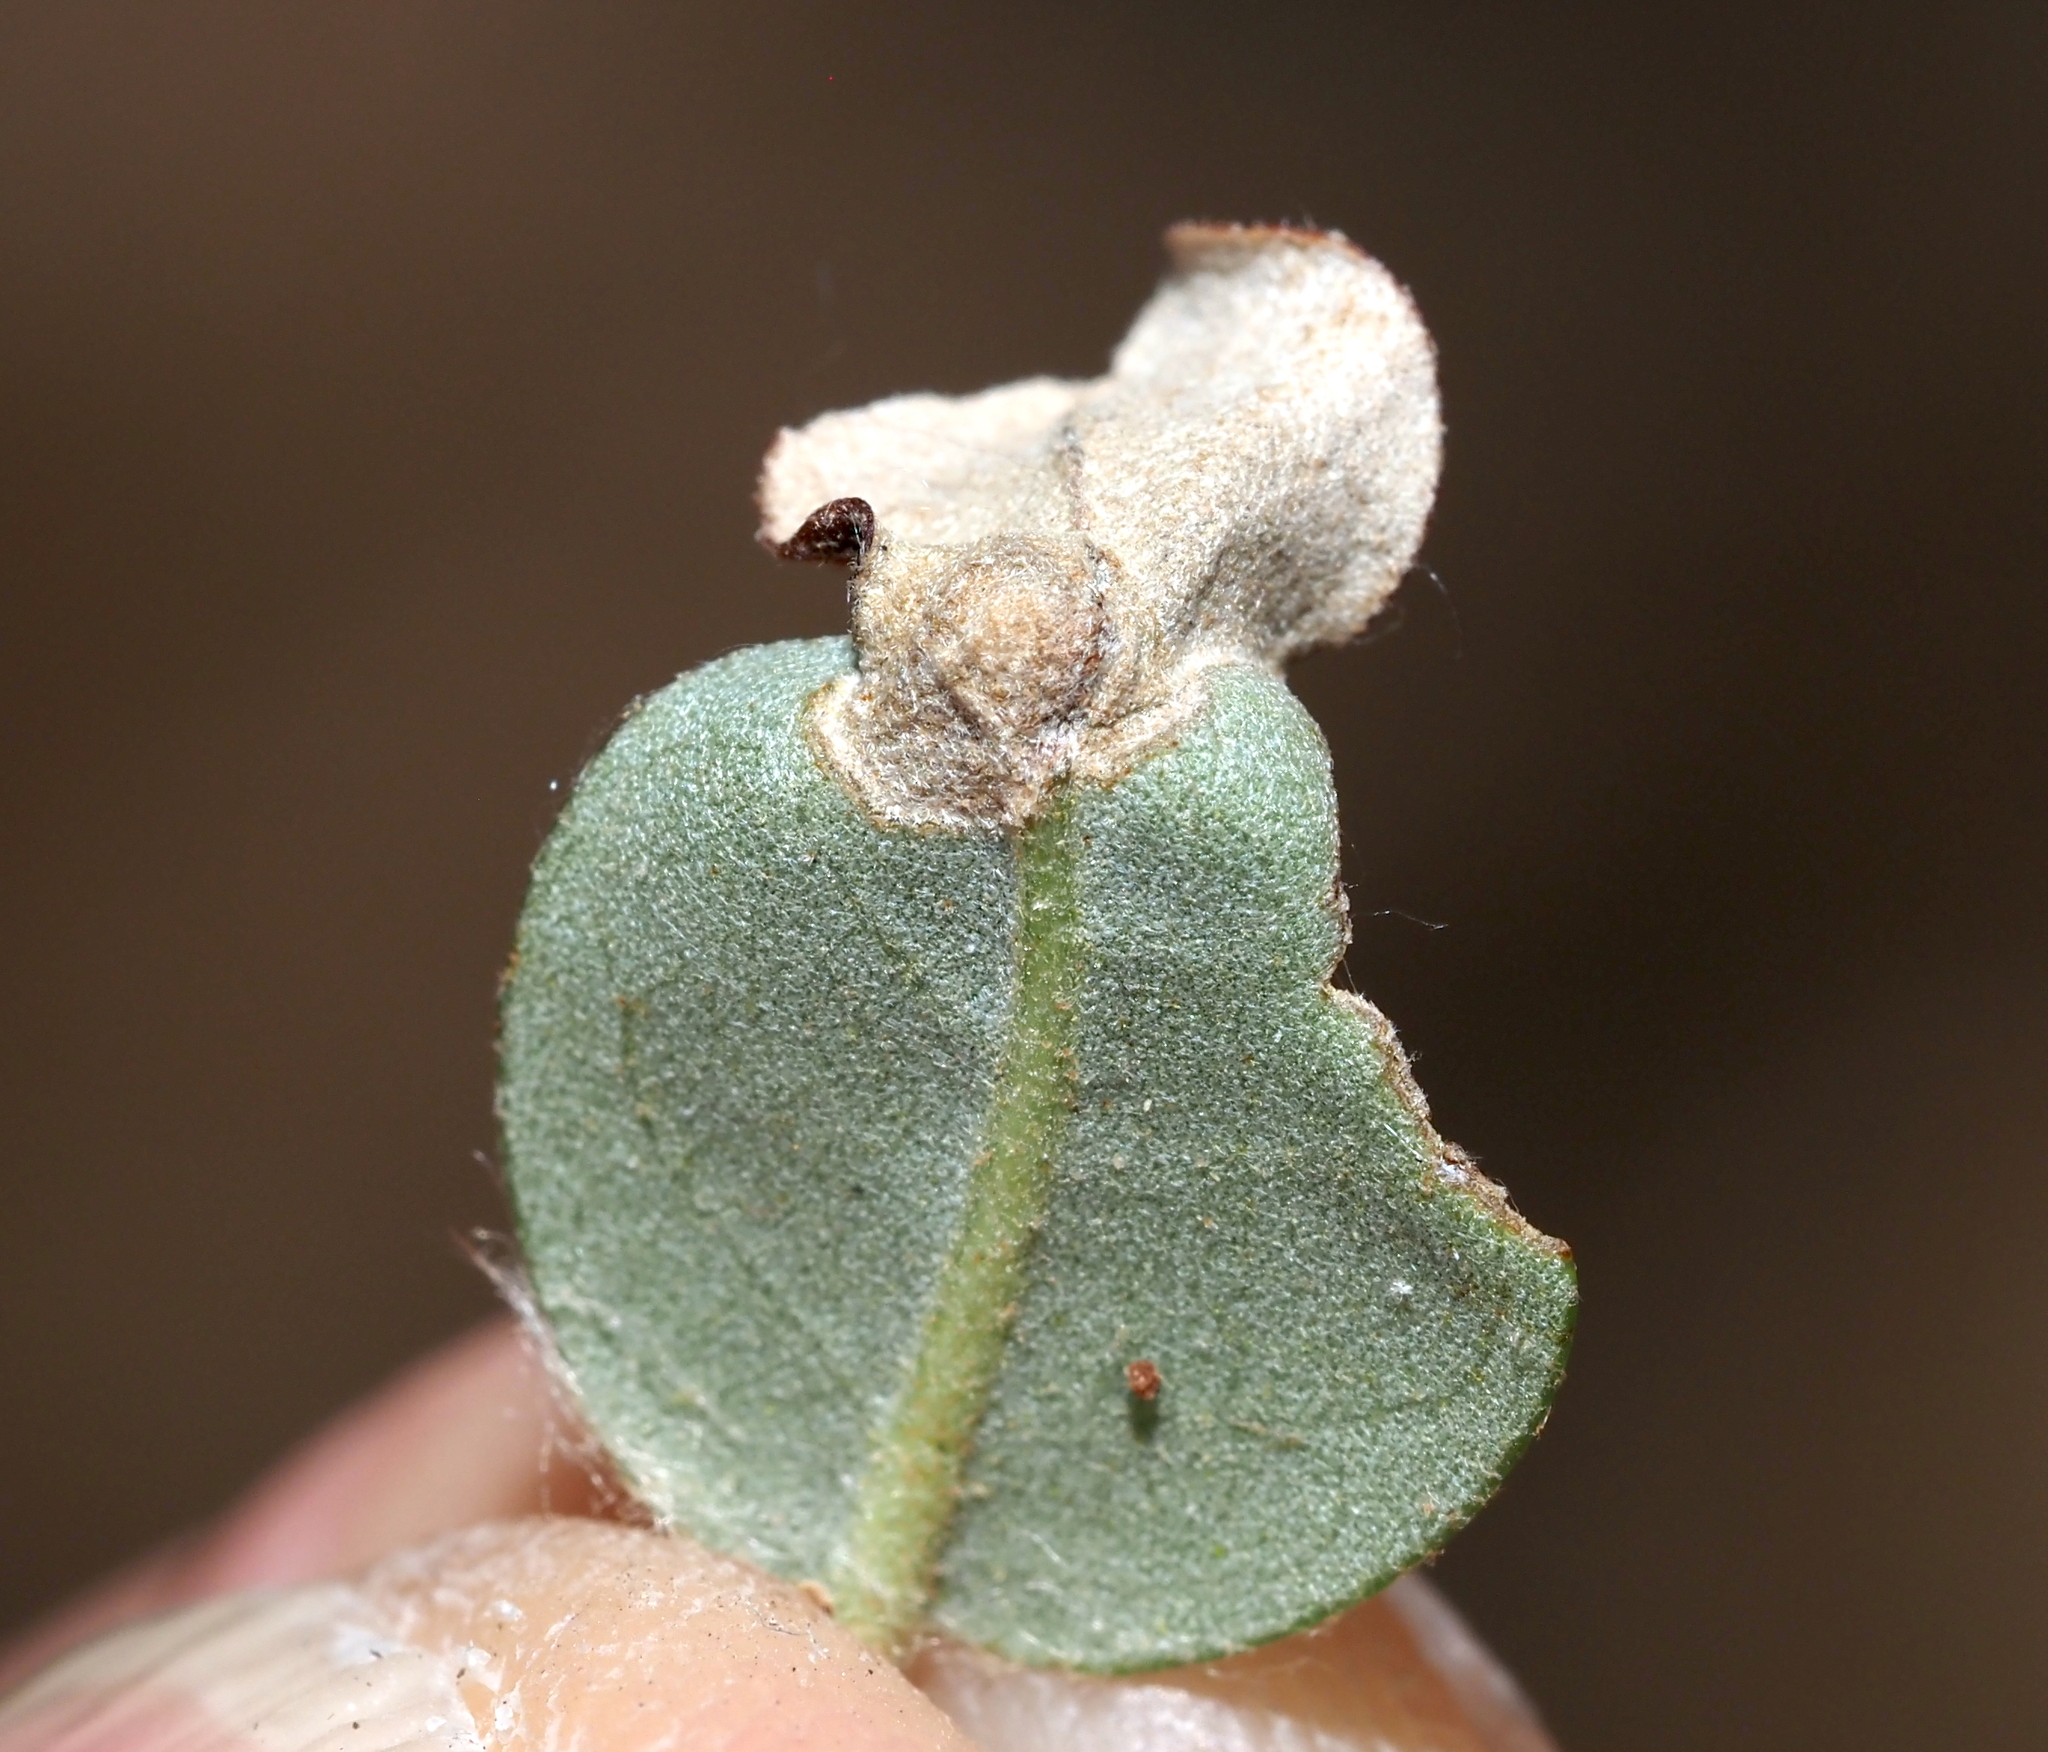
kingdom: Animalia
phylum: Arthropoda
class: Insecta
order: Hymenoptera
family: Cynipidae
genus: Andricus
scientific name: Andricus highlandensis
